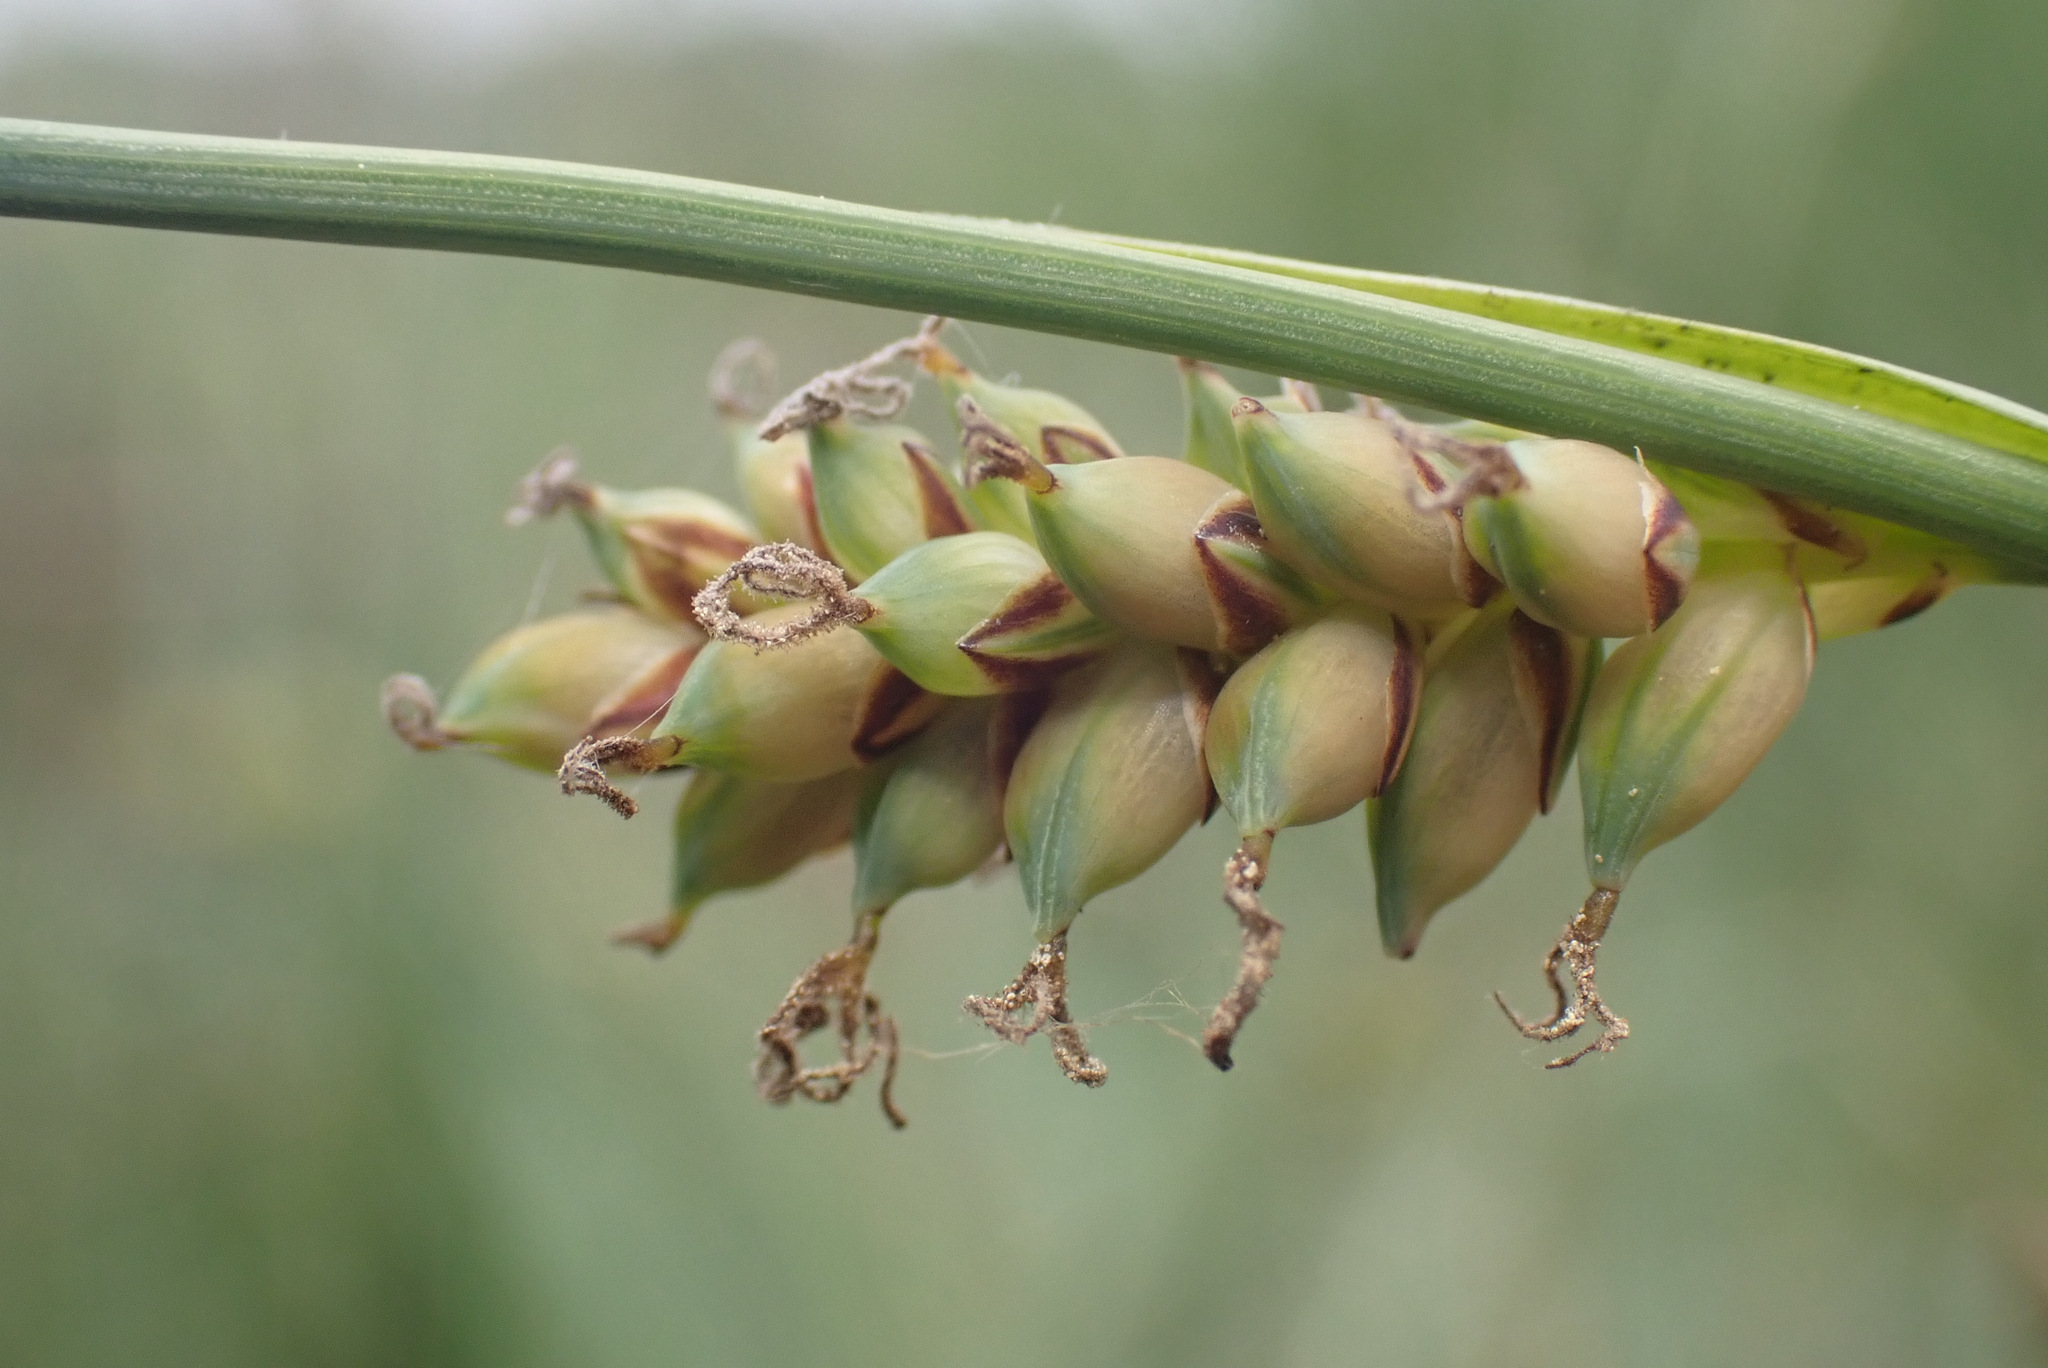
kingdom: Plantae
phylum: Tracheophyta
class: Liliopsida
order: Poales
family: Cyperaceae
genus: Carex
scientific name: Carex panicea
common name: Carnation sedge
